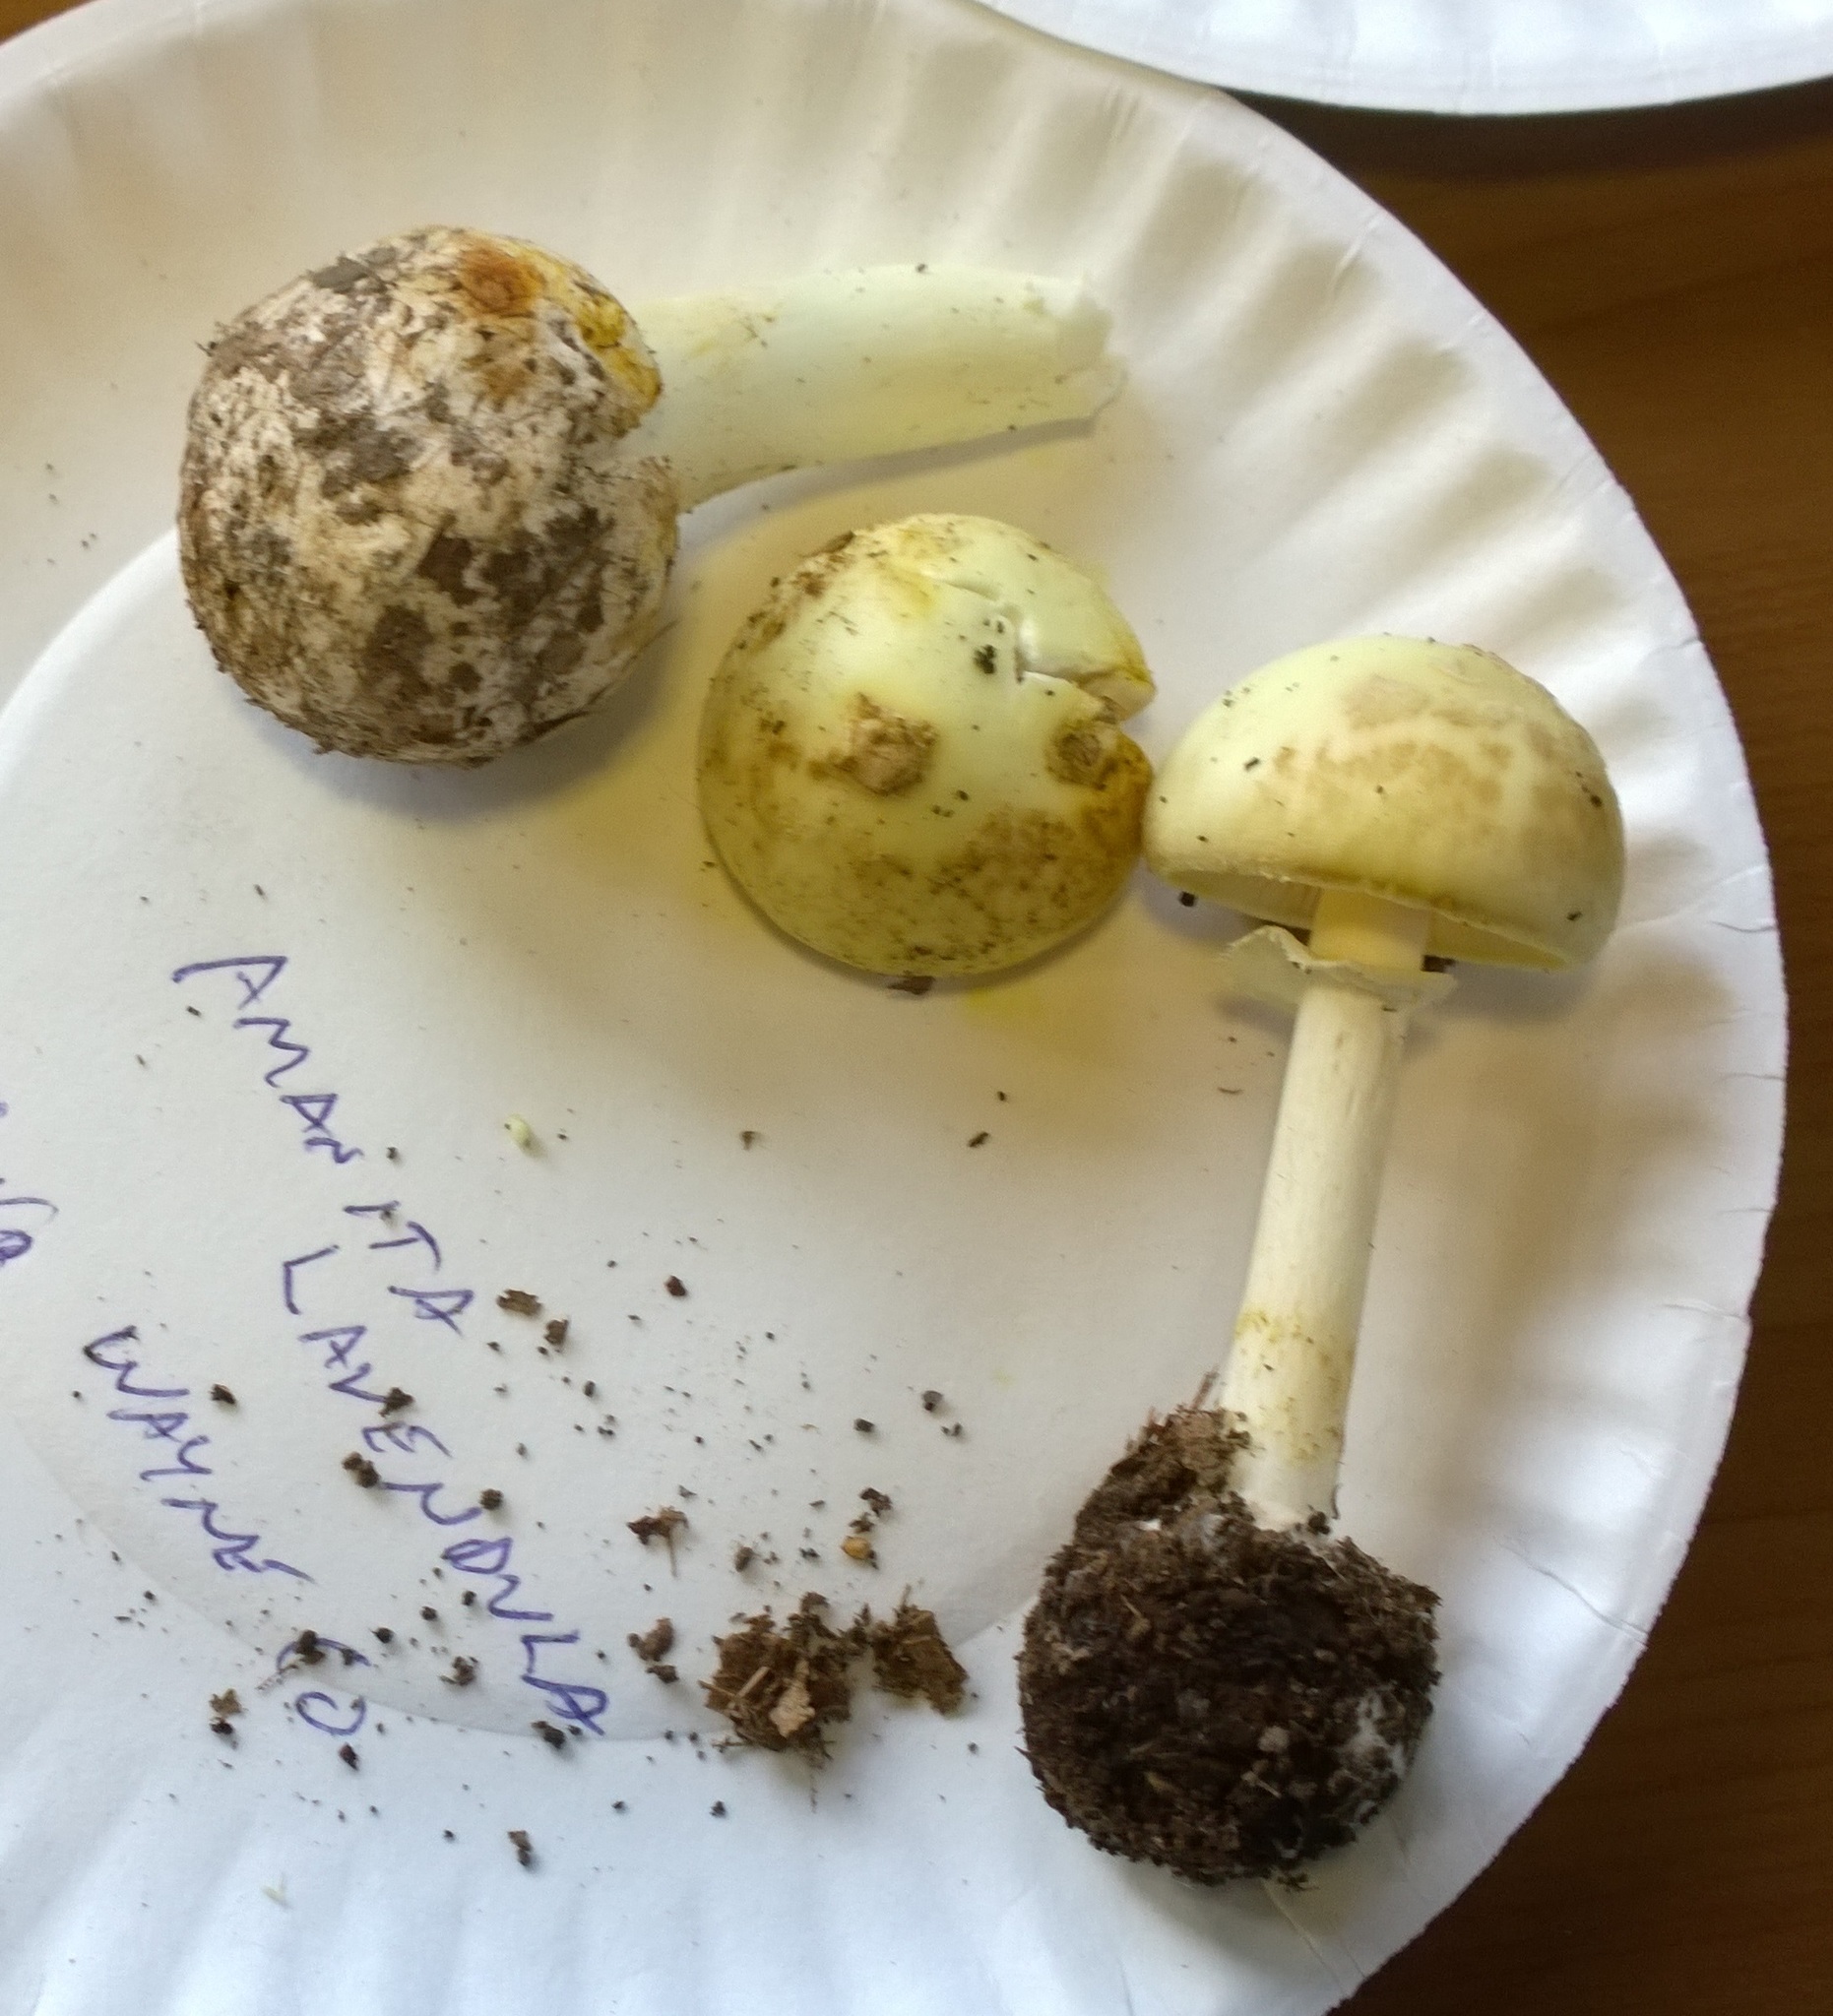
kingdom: Fungi
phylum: Basidiomycota
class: Agaricomycetes
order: Agaricales
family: Amanitaceae
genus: Amanita
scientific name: Amanita lavendula
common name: Coker's lavender staining amanita
